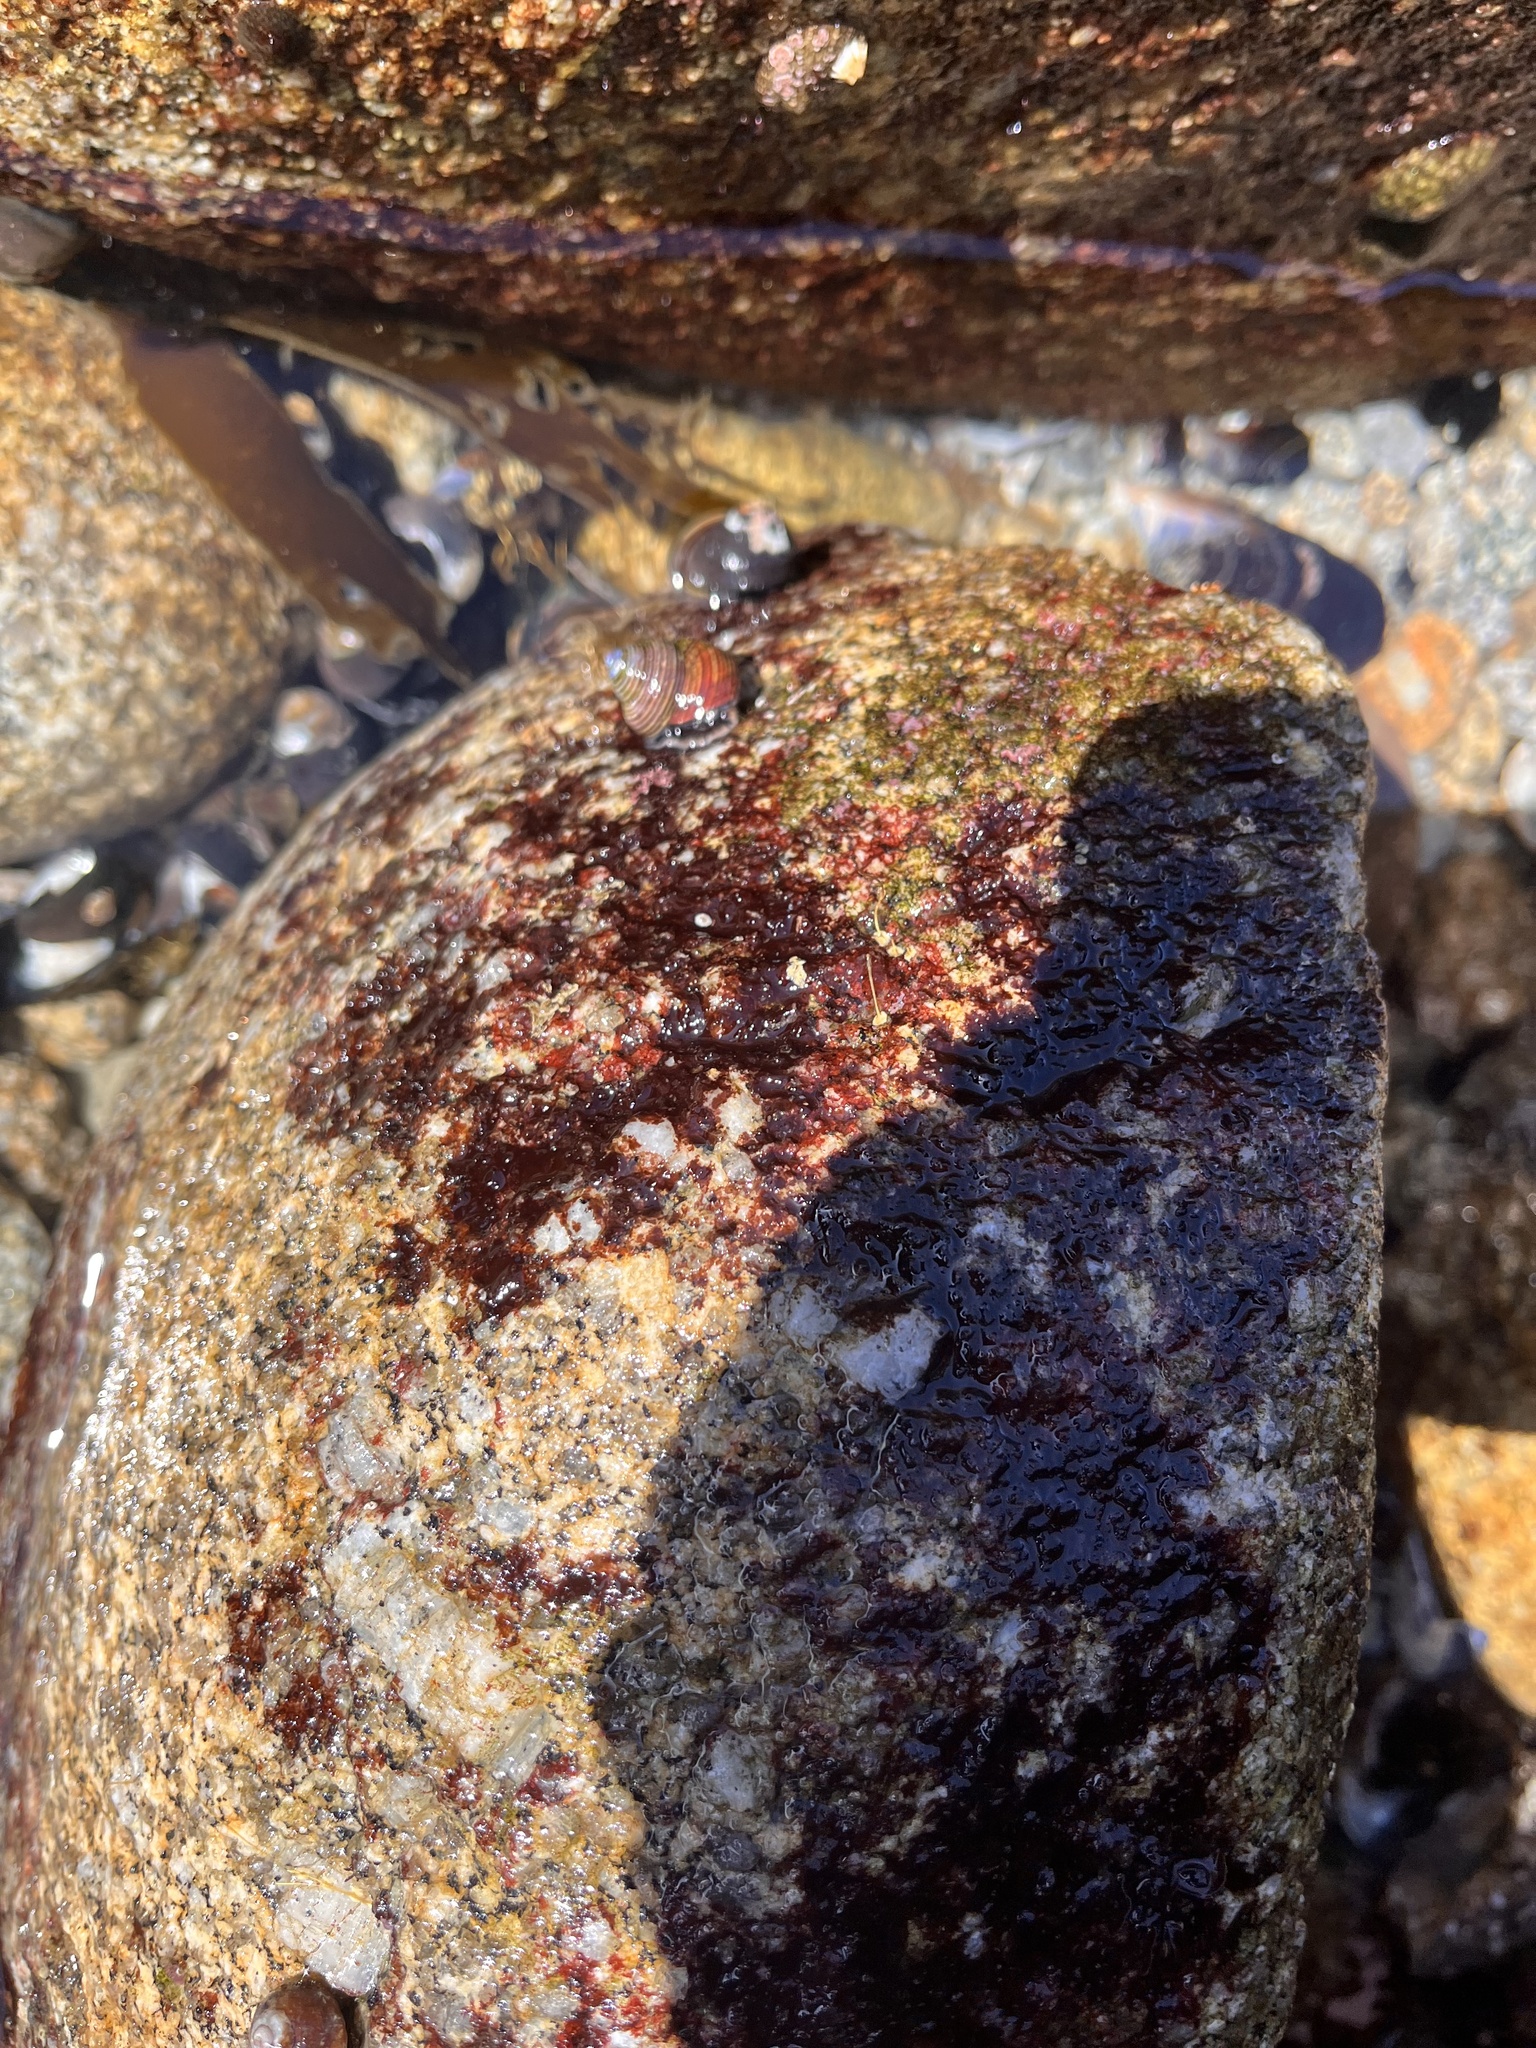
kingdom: Animalia
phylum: Mollusca
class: Gastropoda
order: Trochida
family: Calliostomatidae
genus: Calliostoma
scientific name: Calliostoma ligatum
